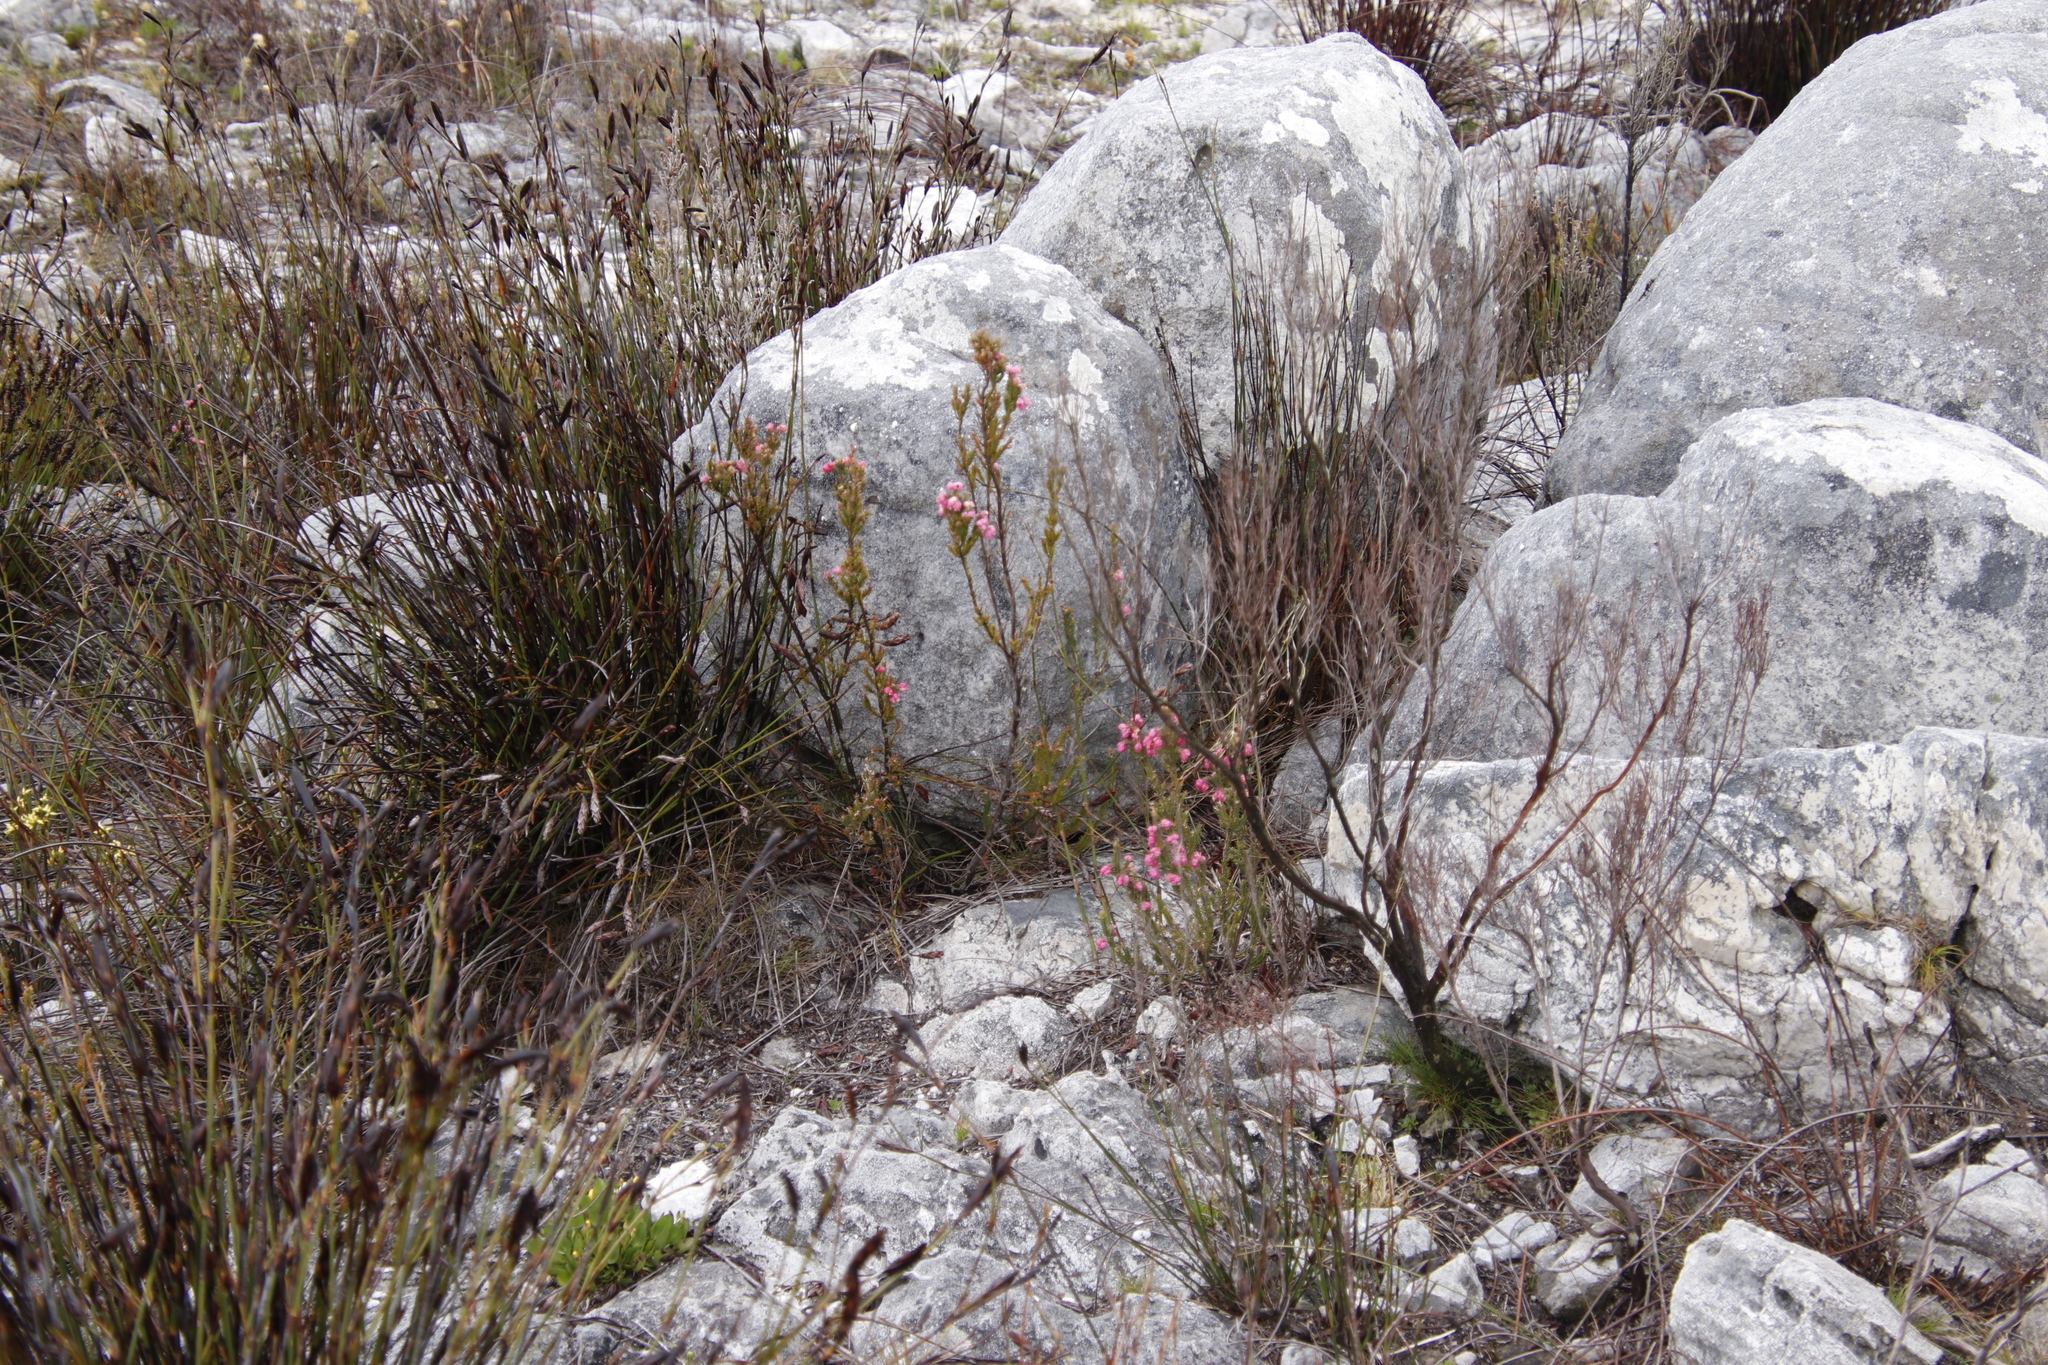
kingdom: Plantae
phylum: Tracheophyta
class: Magnoliopsida
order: Ericales
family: Ericaceae
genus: Erica
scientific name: Erica tegulifolia
